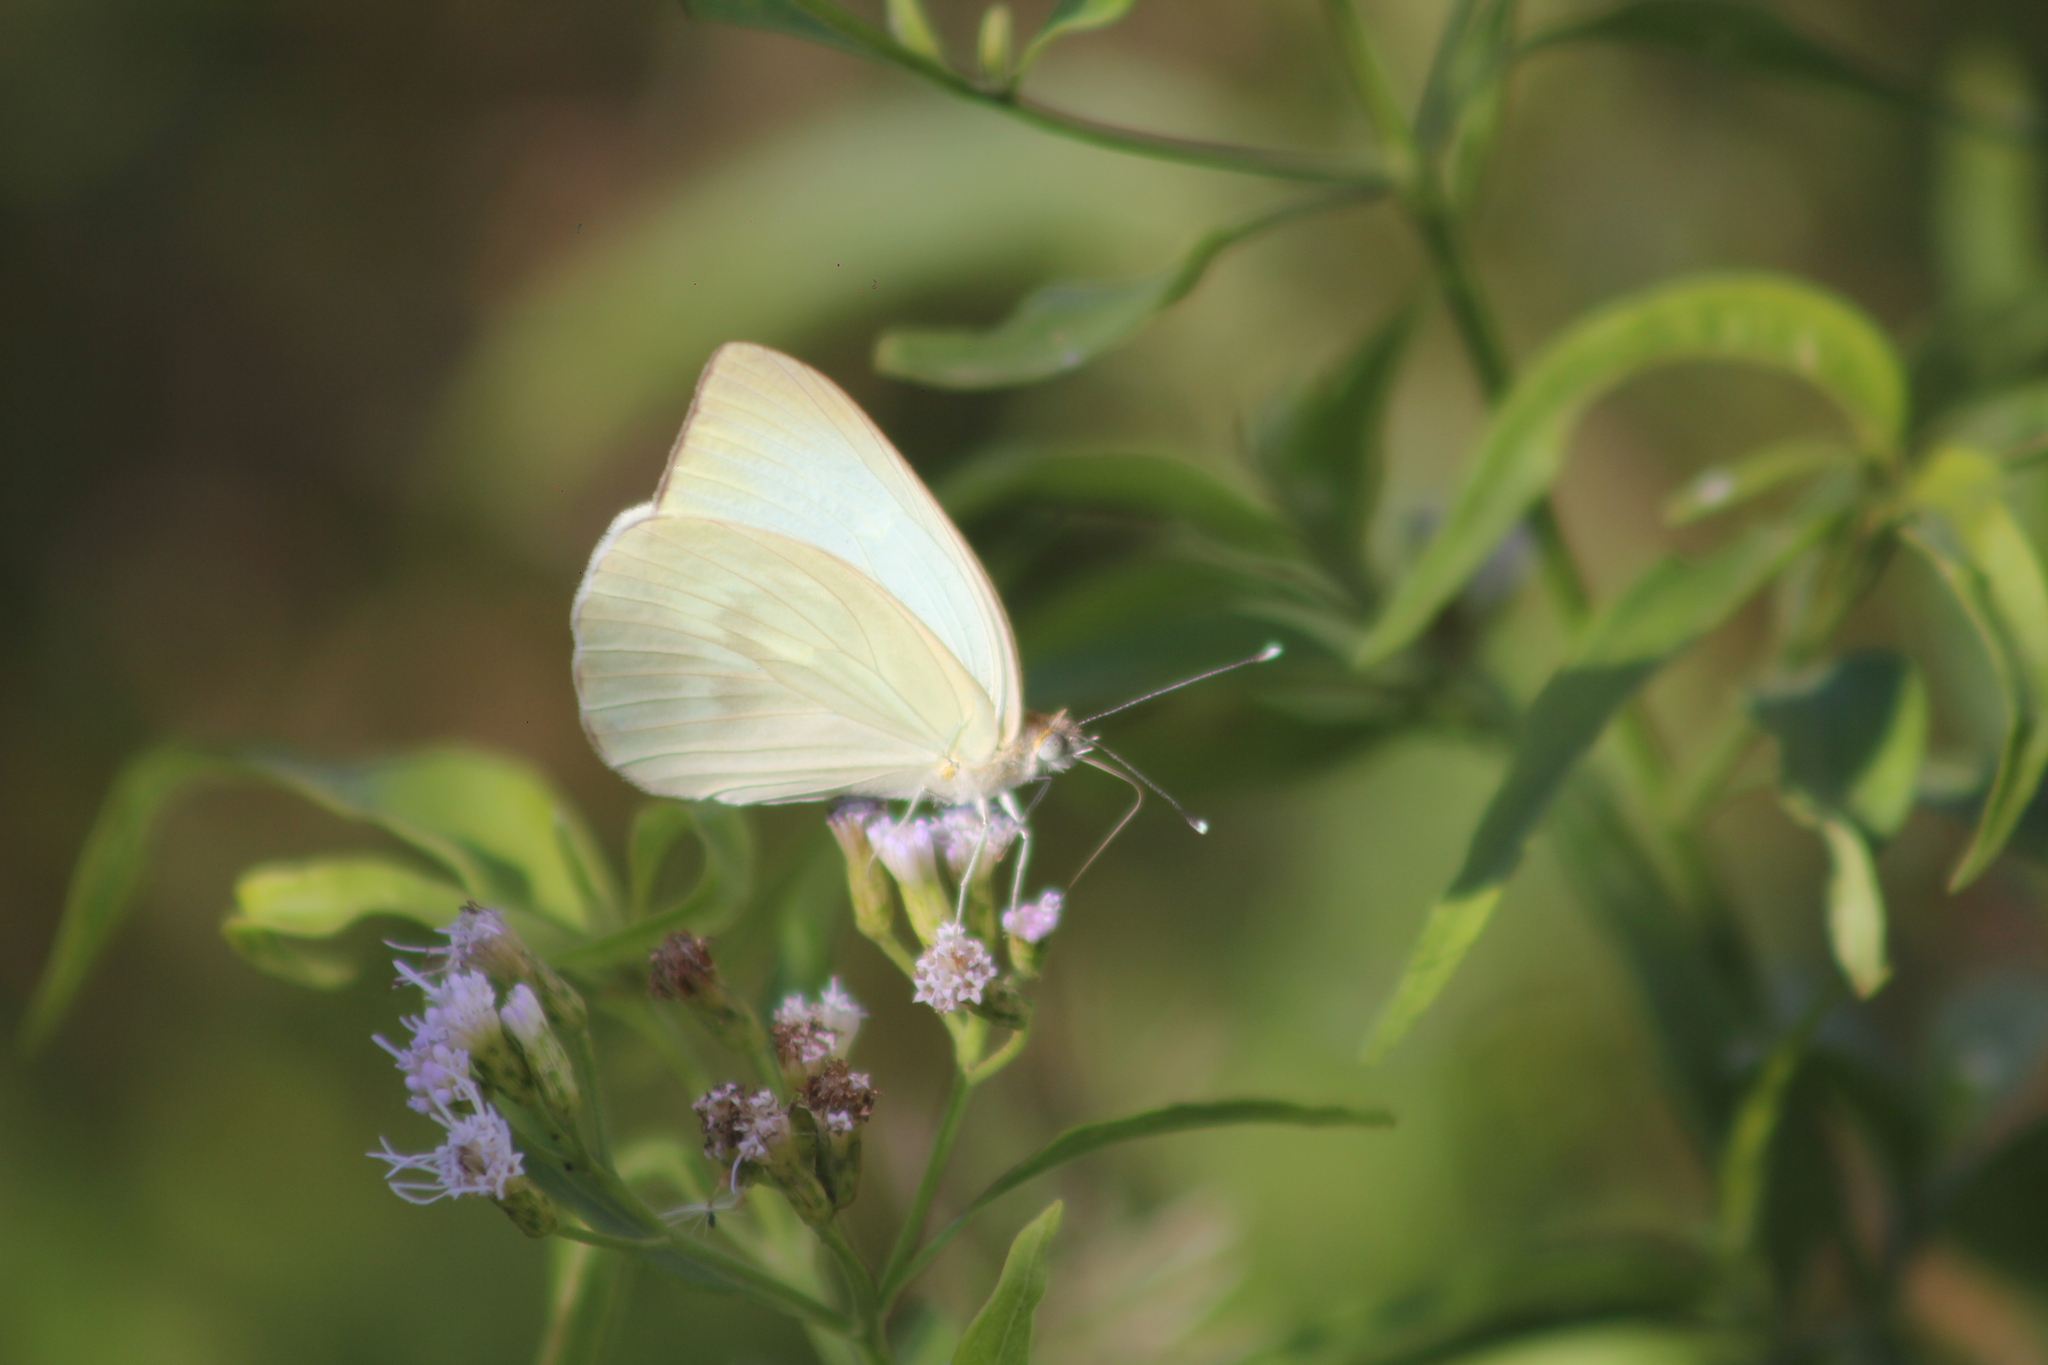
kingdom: Animalia
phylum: Arthropoda
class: Insecta
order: Lepidoptera
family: Pieridae
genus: Ascia
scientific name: Ascia monuste
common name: Great southern white
